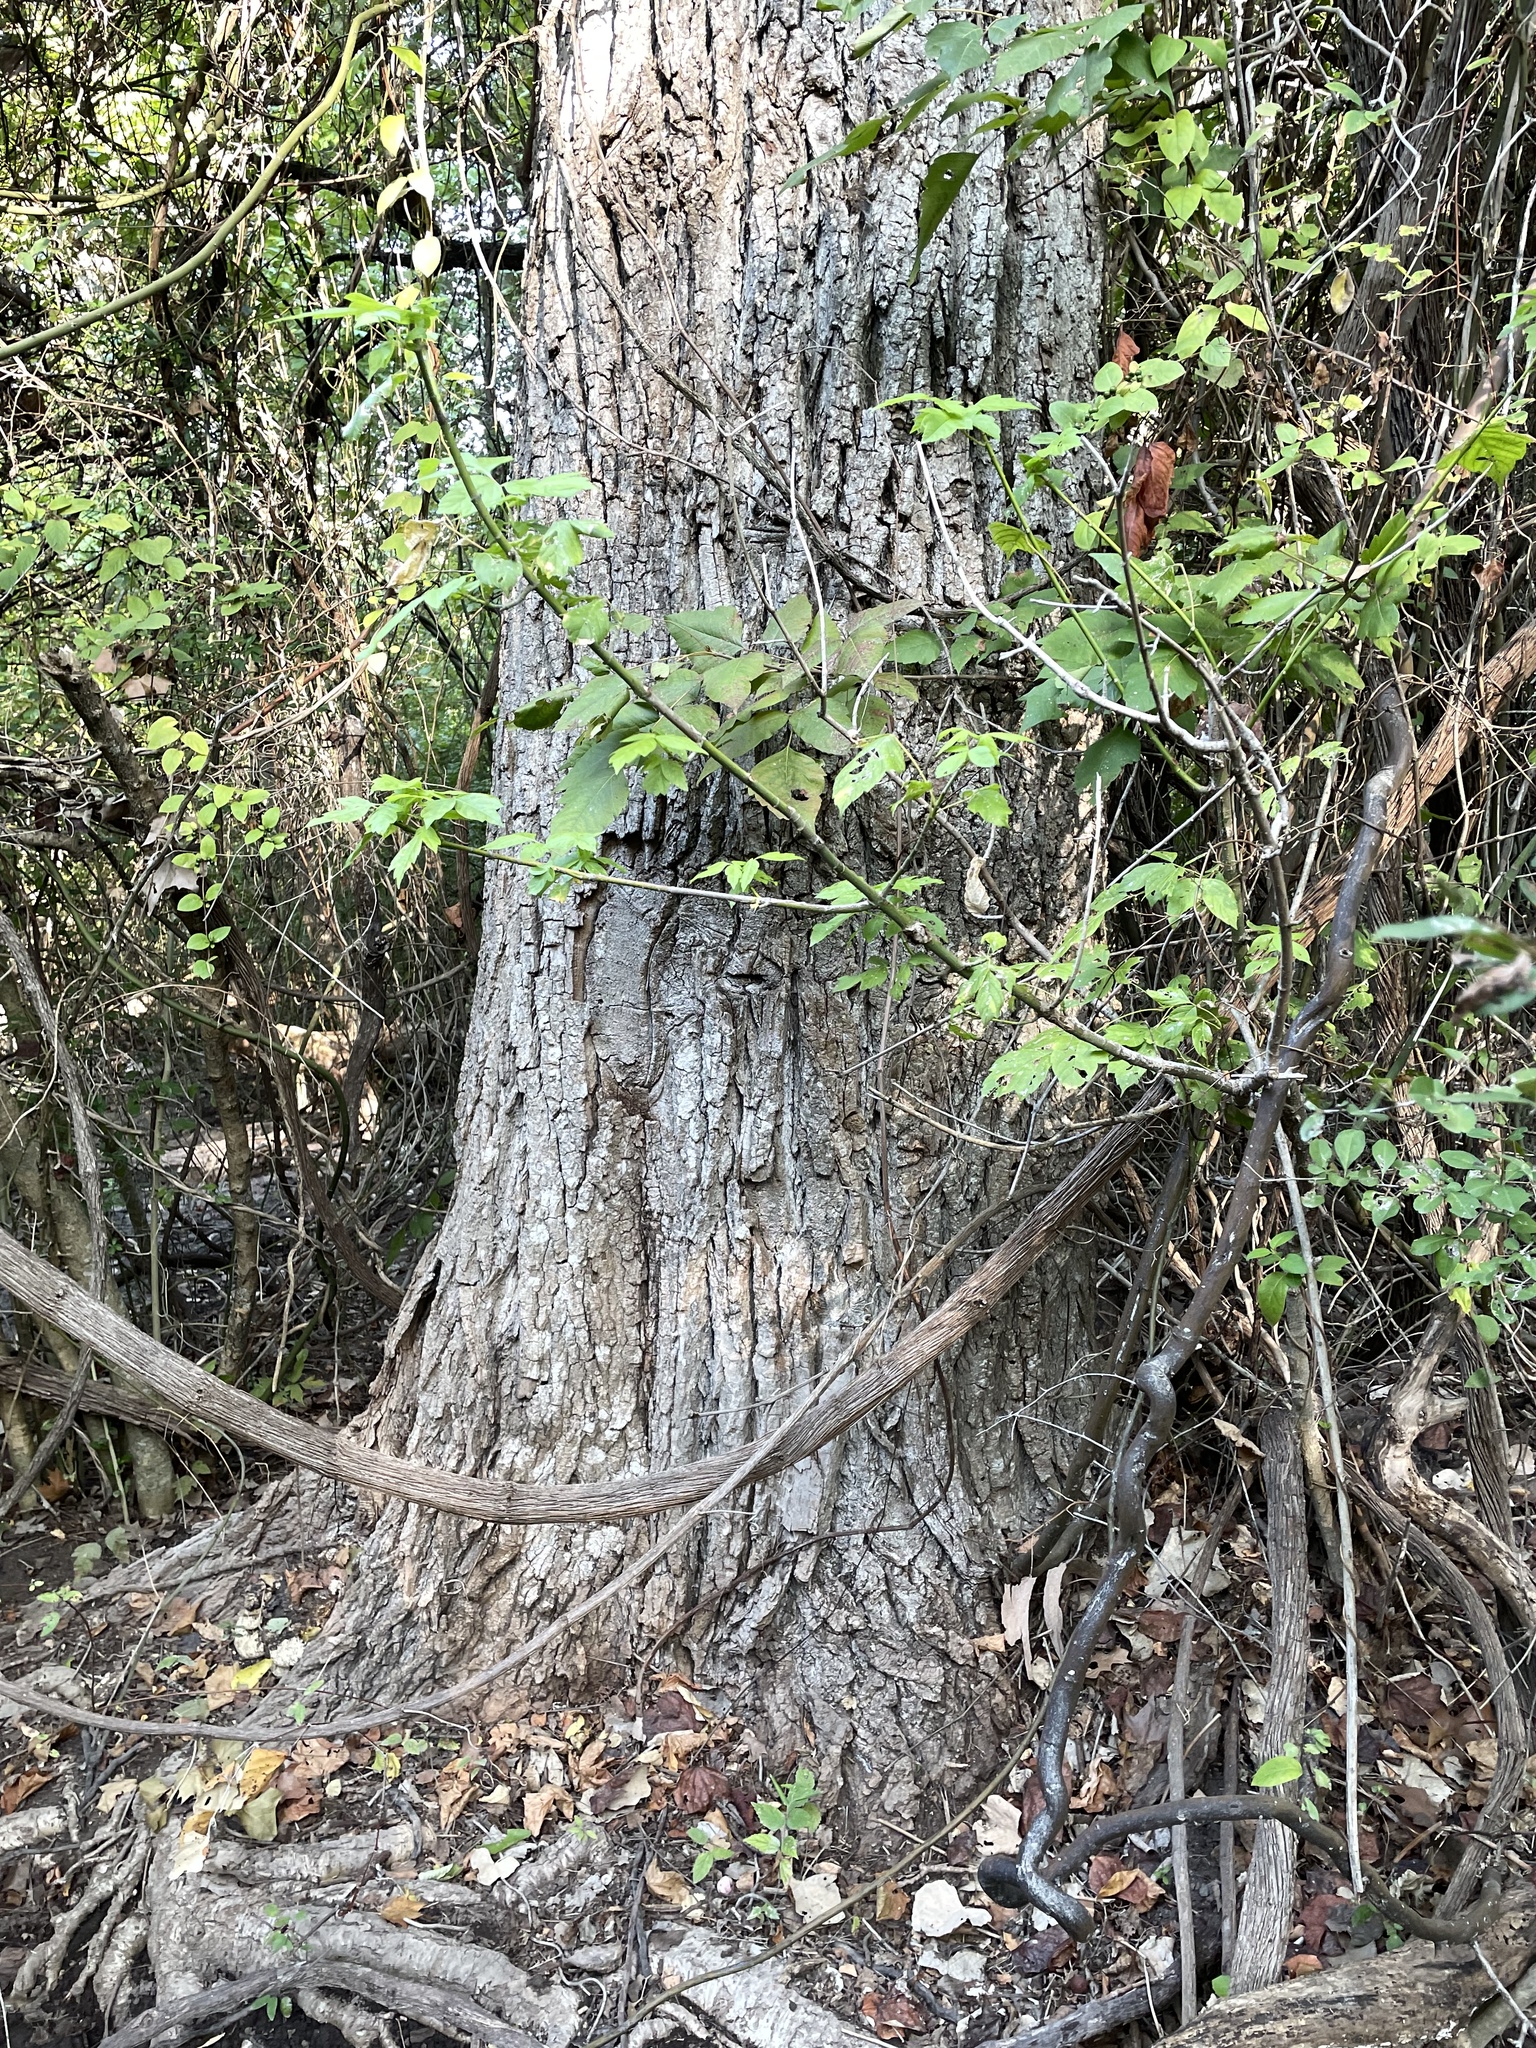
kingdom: Plantae
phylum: Tracheophyta
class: Magnoliopsida
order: Malpighiales
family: Salicaceae
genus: Populus
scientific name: Populus deltoides
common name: Eastern cottonwood
